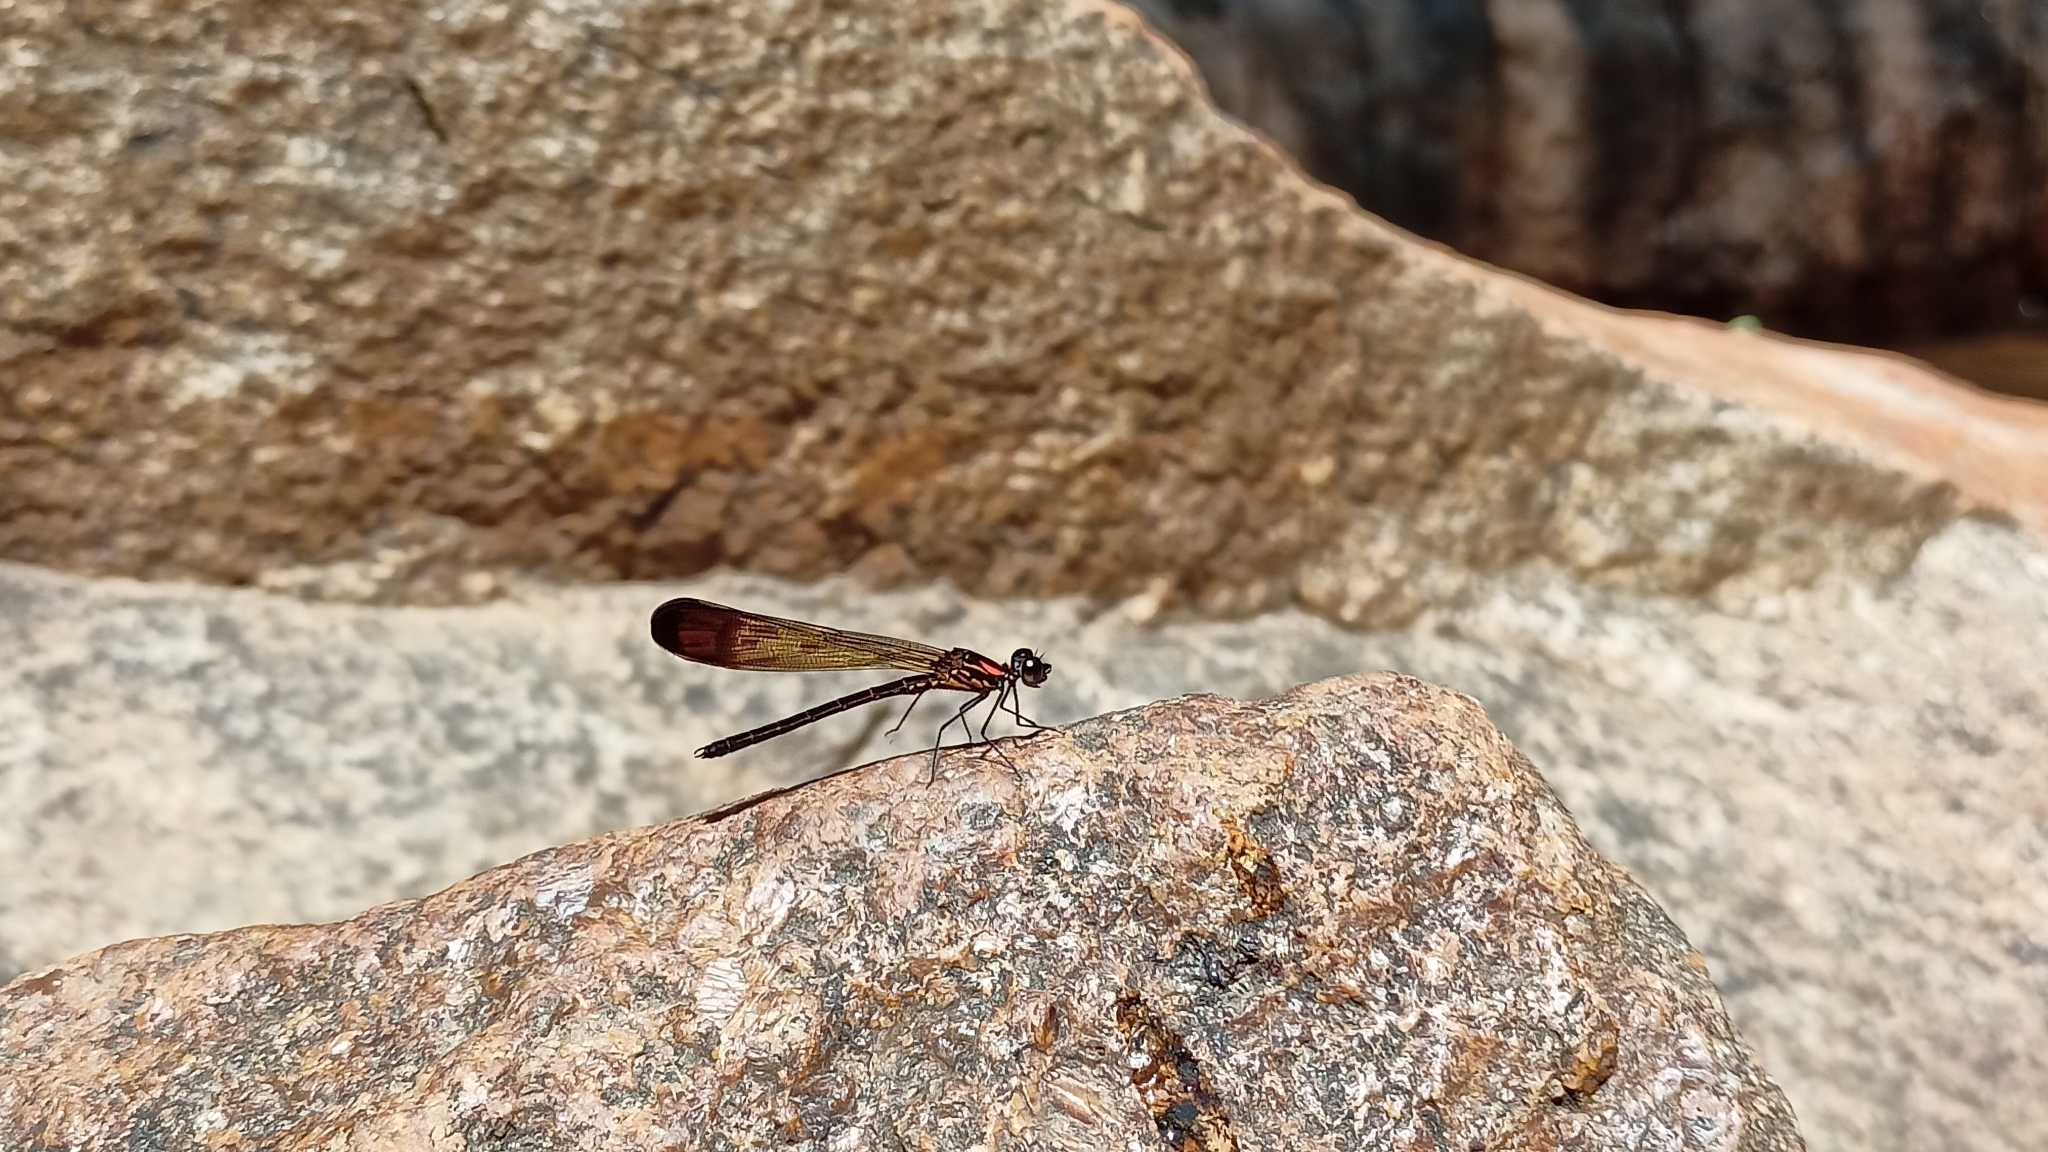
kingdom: Animalia
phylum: Arthropoda
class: Insecta
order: Odonata
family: Chlorocyphidae
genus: Heliocypha
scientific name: Heliocypha bisignata
